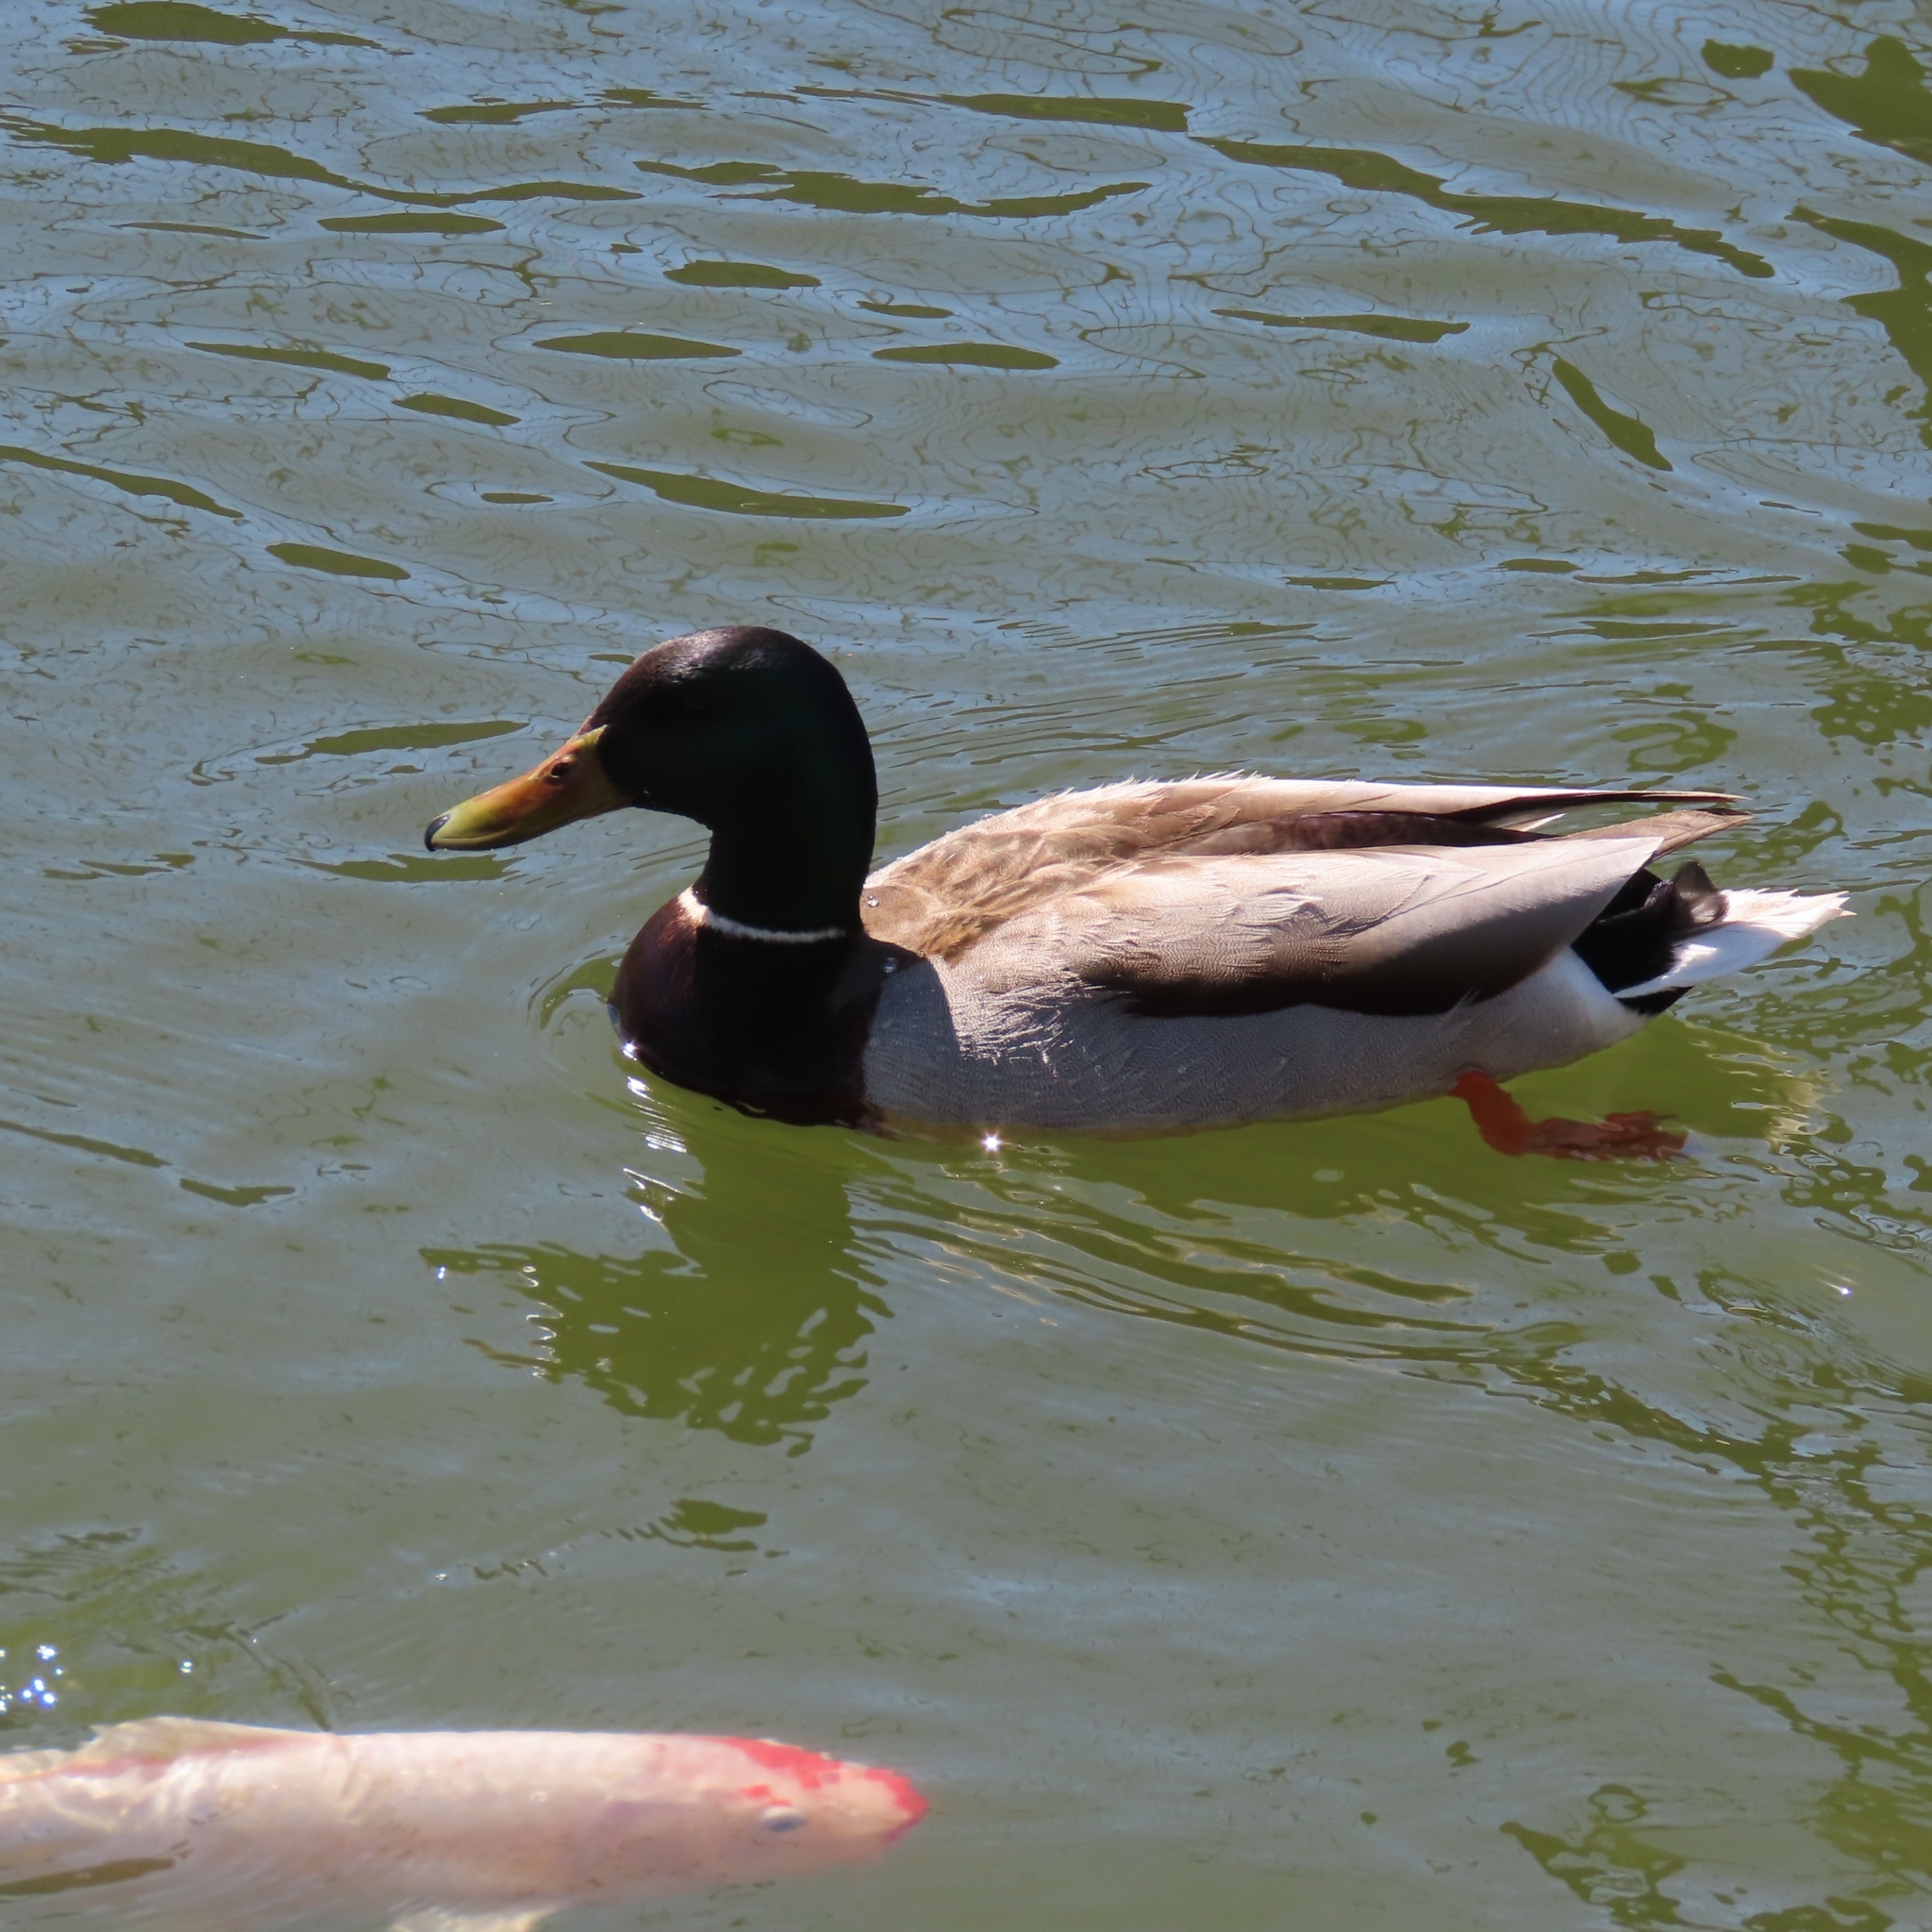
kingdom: Animalia
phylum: Chordata
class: Aves
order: Anseriformes
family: Anatidae
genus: Anas
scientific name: Anas platyrhynchos
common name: Mallard
